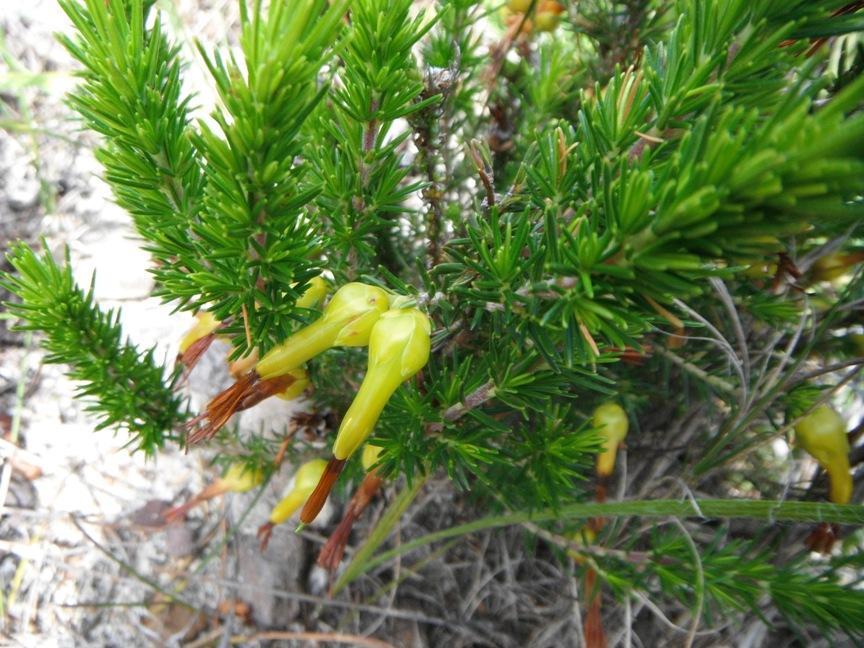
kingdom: Plantae
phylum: Tracheophyta
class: Magnoliopsida
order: Ericales
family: Ericaceae
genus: Erica
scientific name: Erica melastoma
